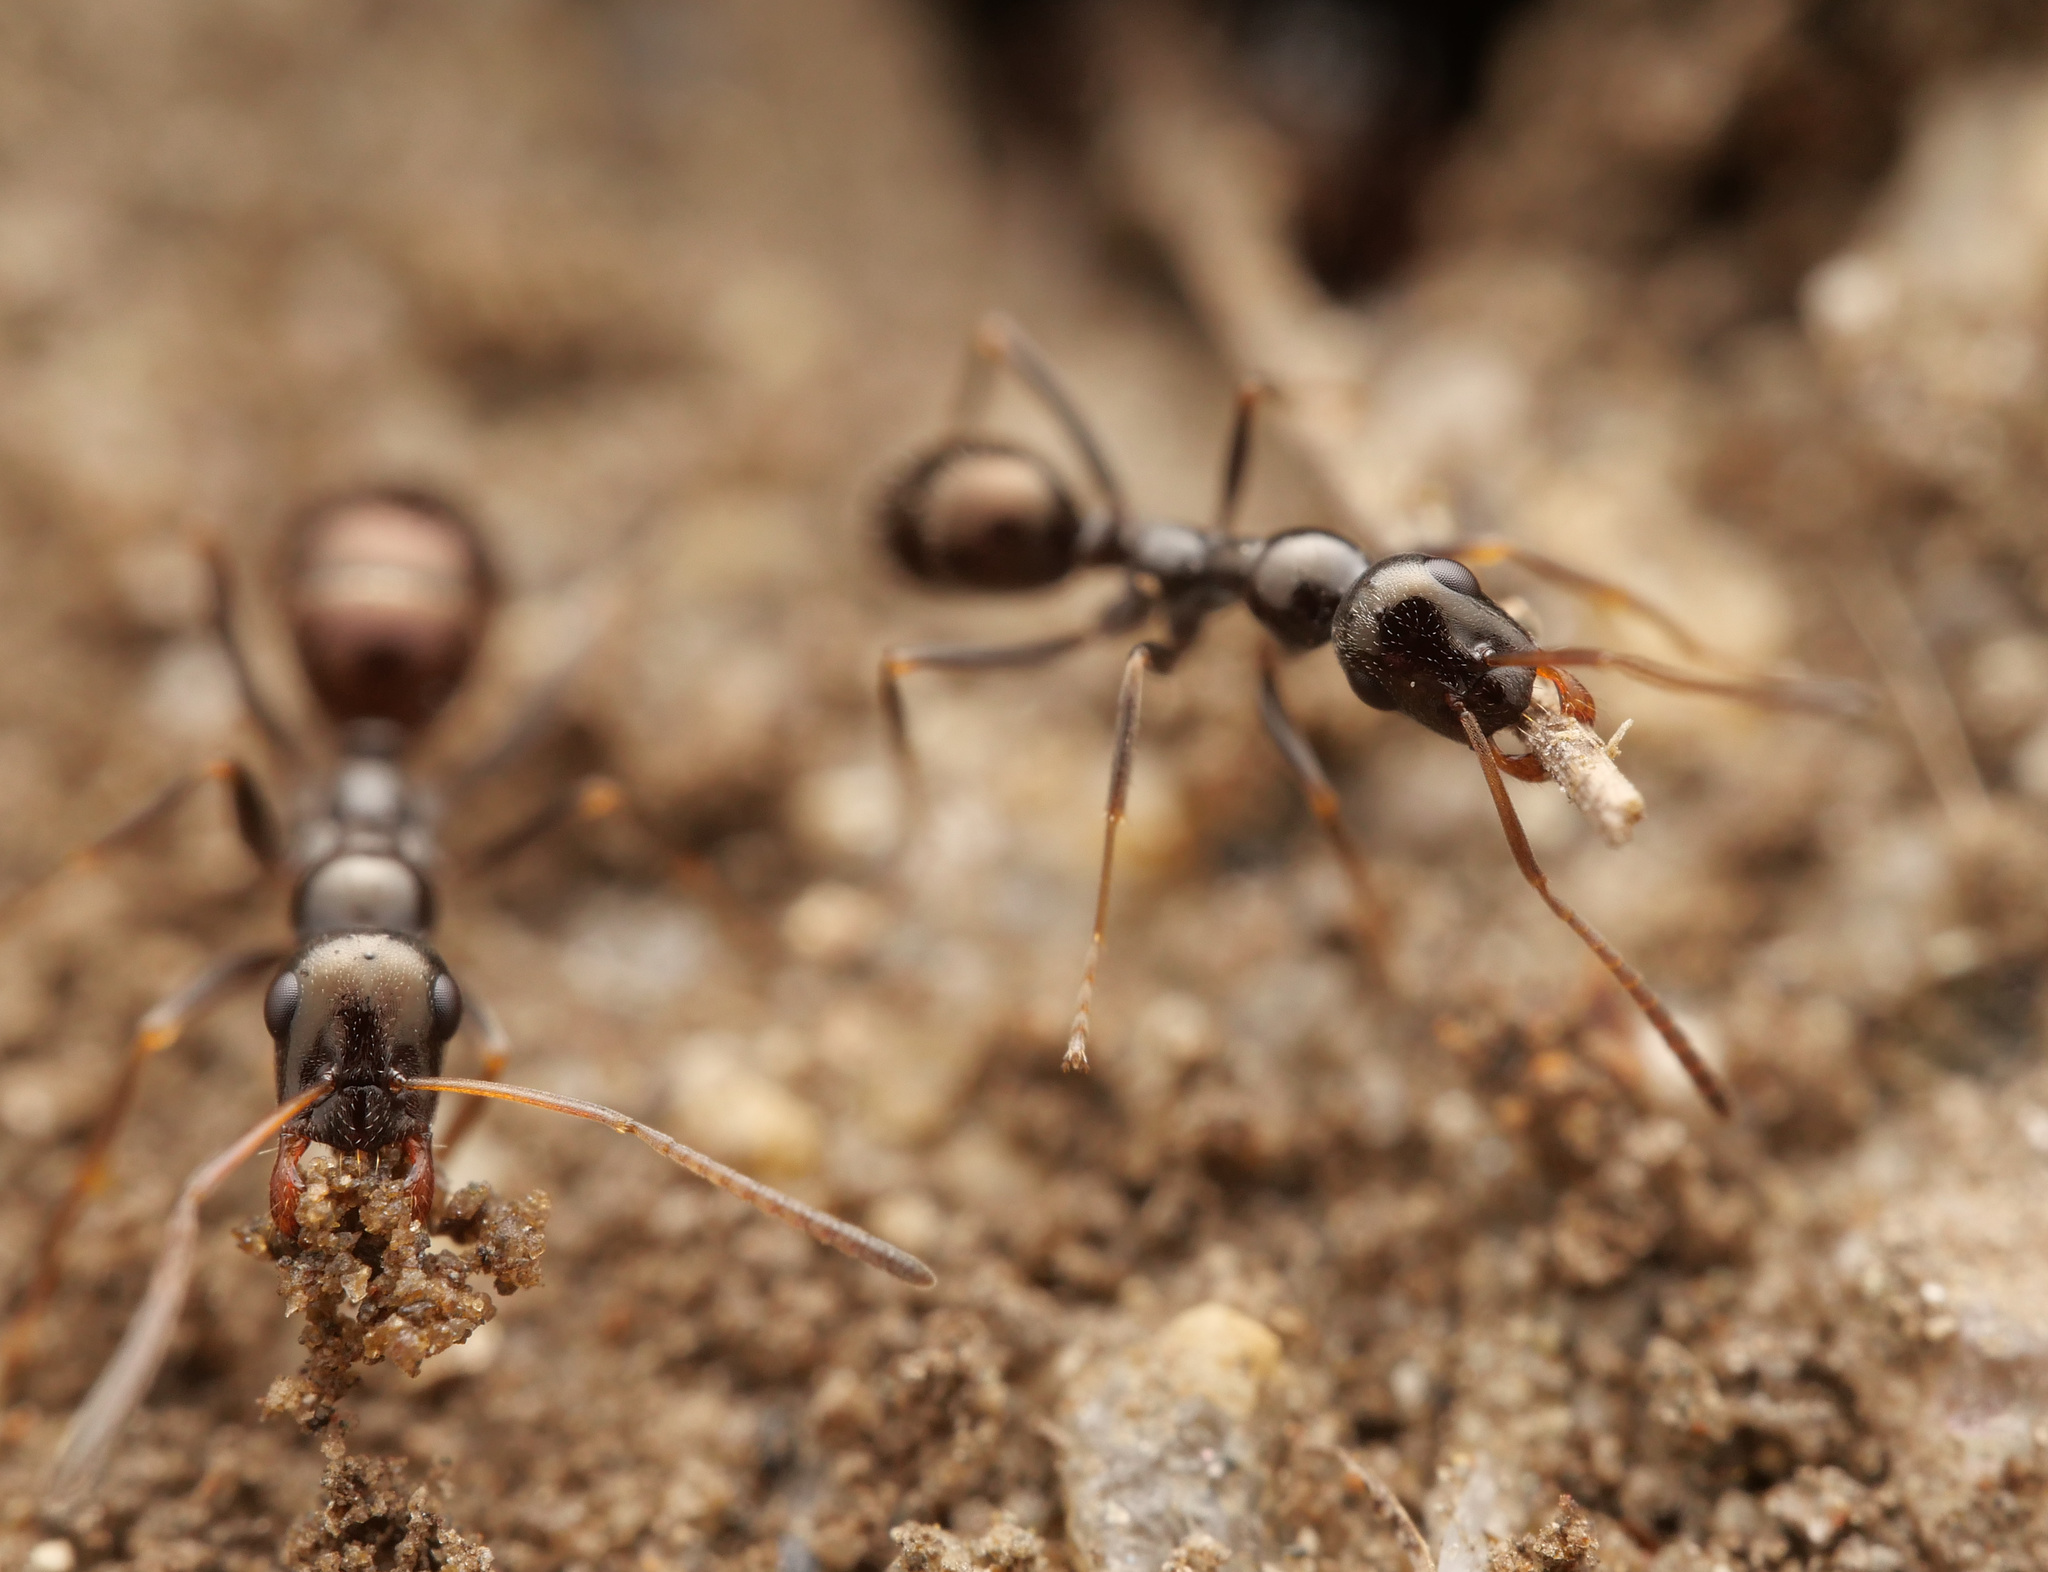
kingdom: Animalia
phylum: Arthropoda
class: Insecta
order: Hymenoptera
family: Formicidae
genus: Proformica
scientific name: Proformica striaticeps
